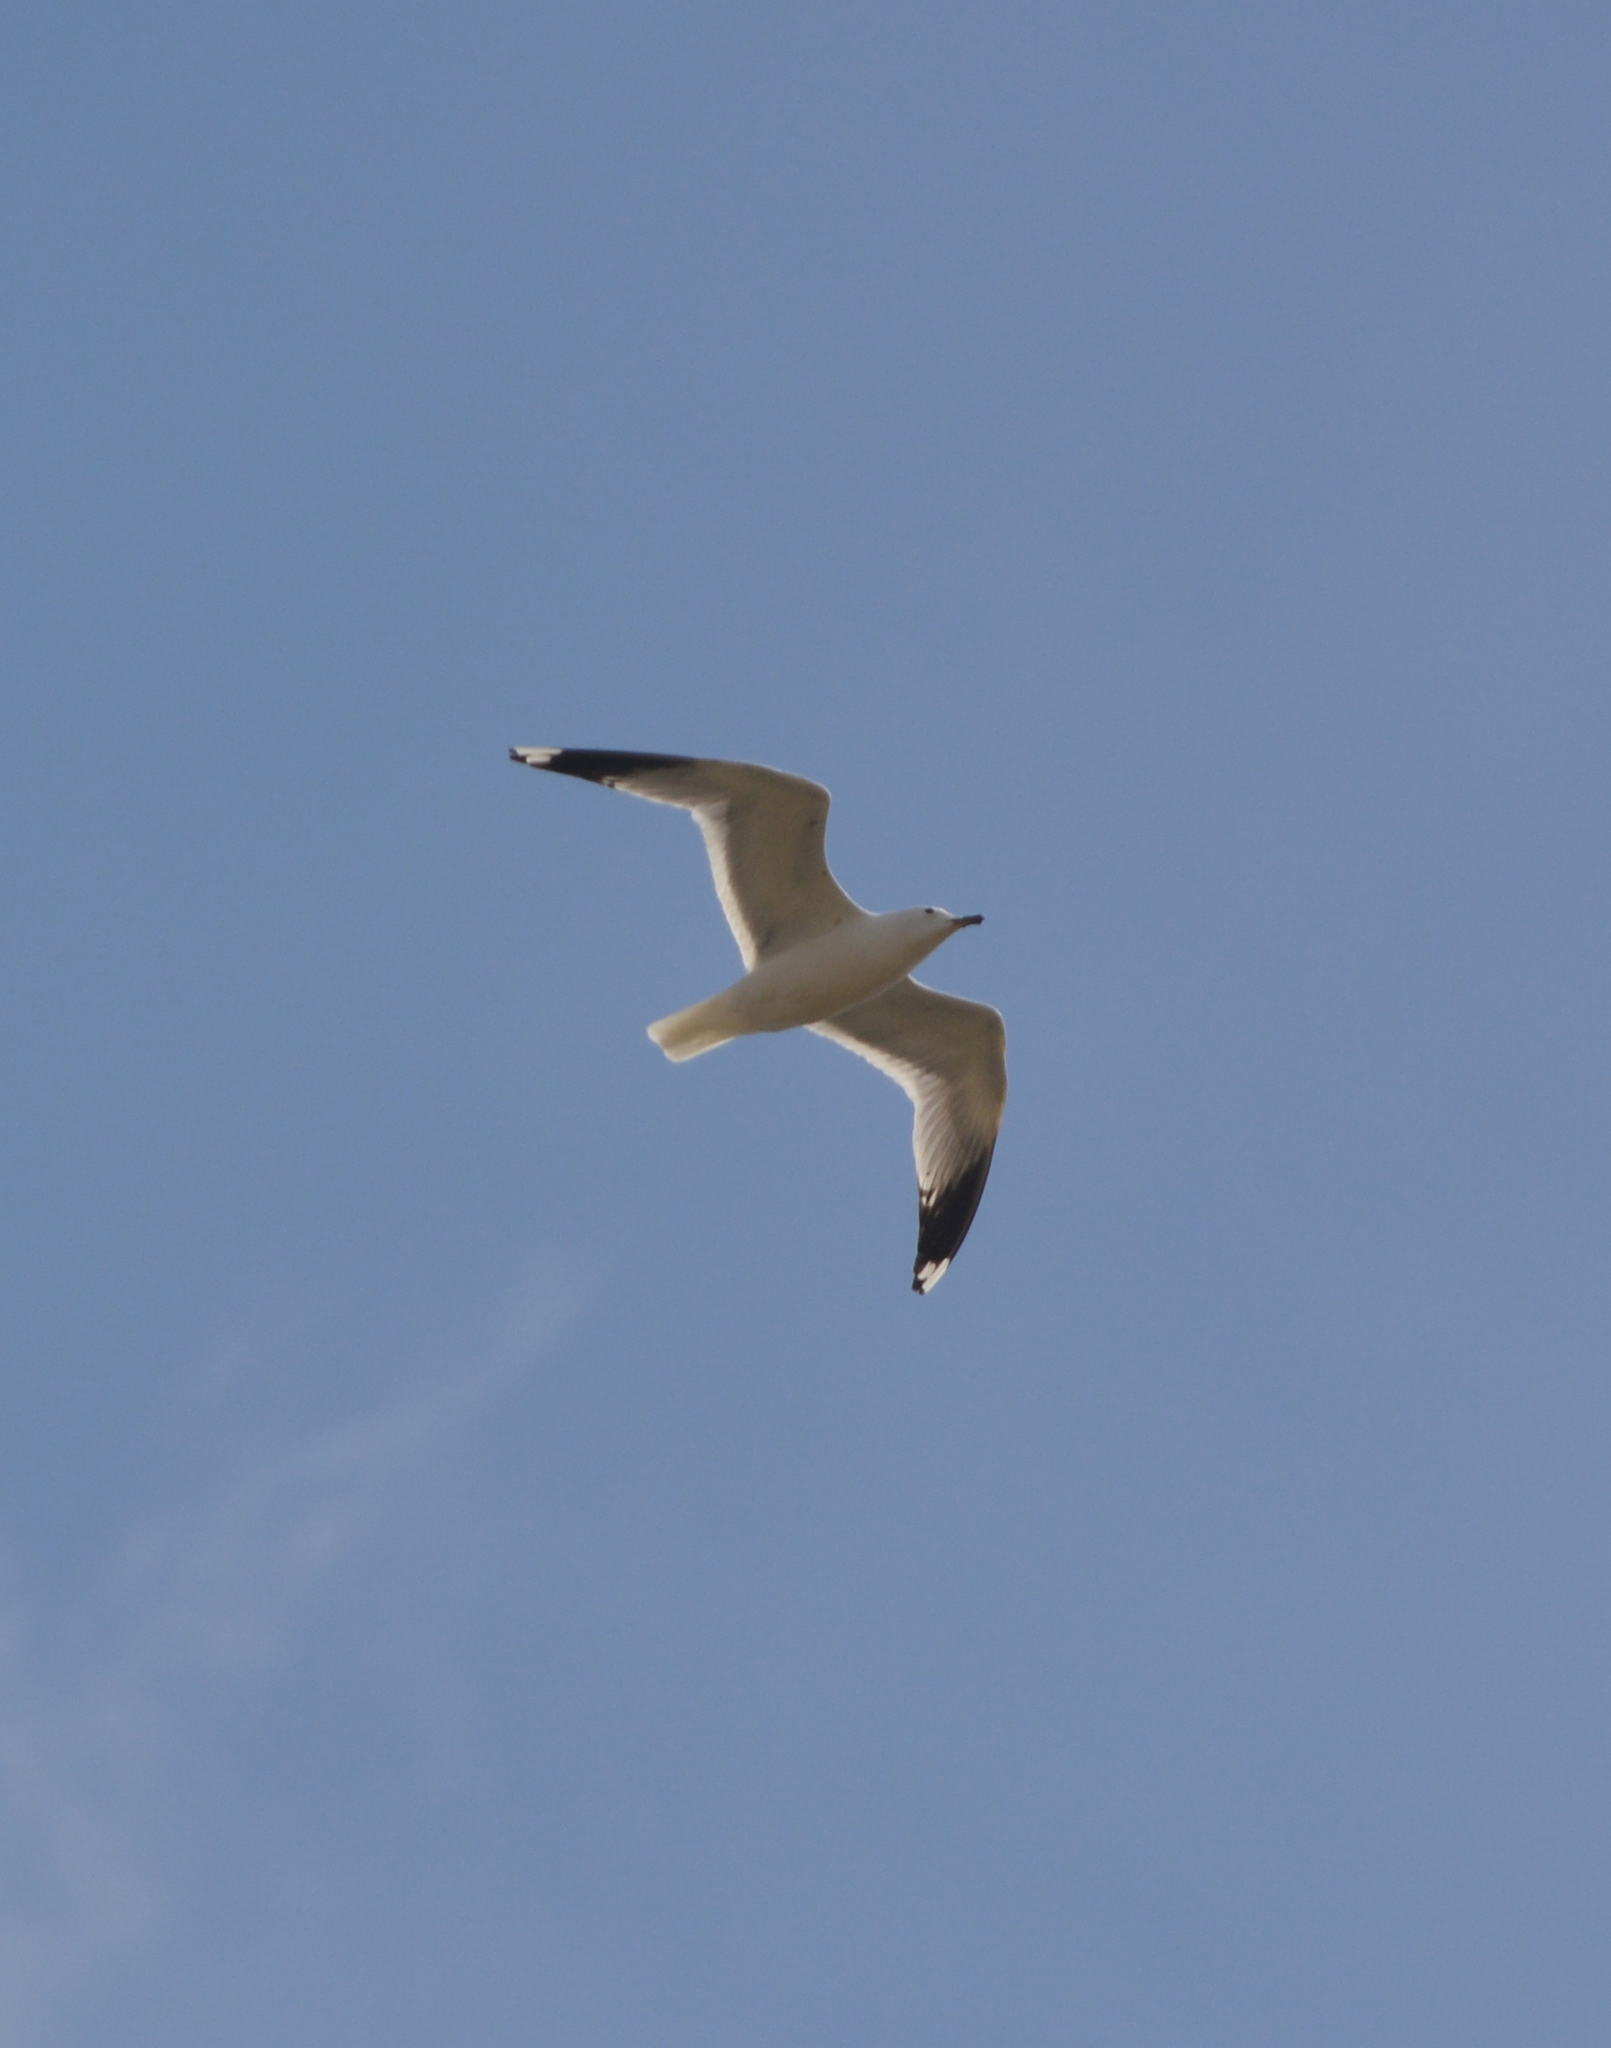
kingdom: Animalia
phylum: Chordata
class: Aves
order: Charadriiformes
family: Laridae
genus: Larus
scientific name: Larus canus
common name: Mew gull
